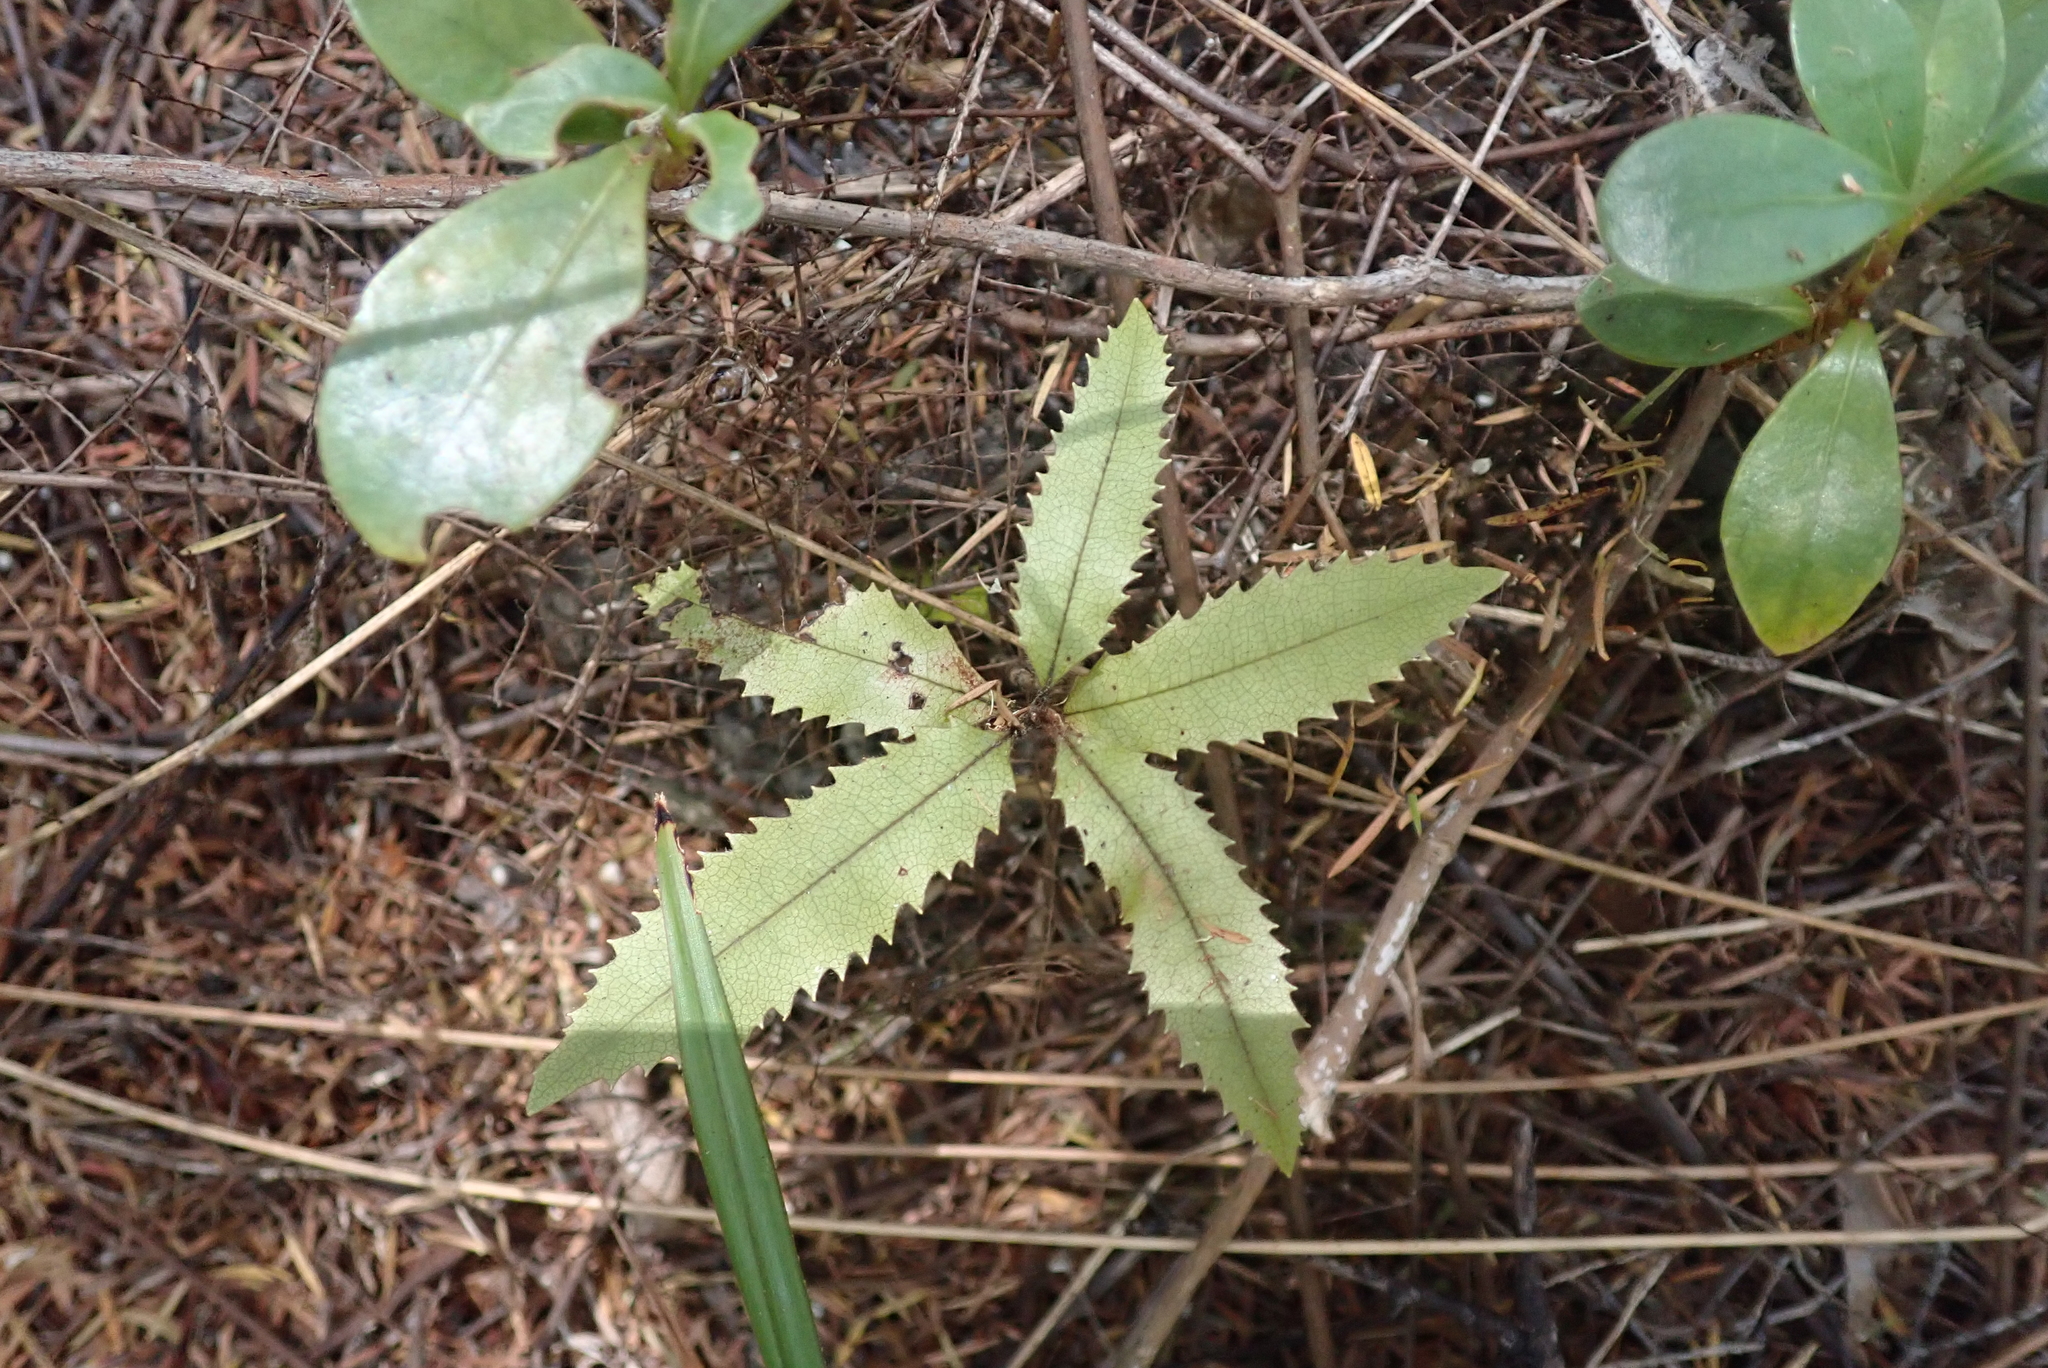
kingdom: Plantae
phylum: Tracheophyta
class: Magnoliopsida
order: Proteales
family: Proteaceae
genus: Knightia
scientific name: Knightia excelsa
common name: New zealand-honeysuckle
